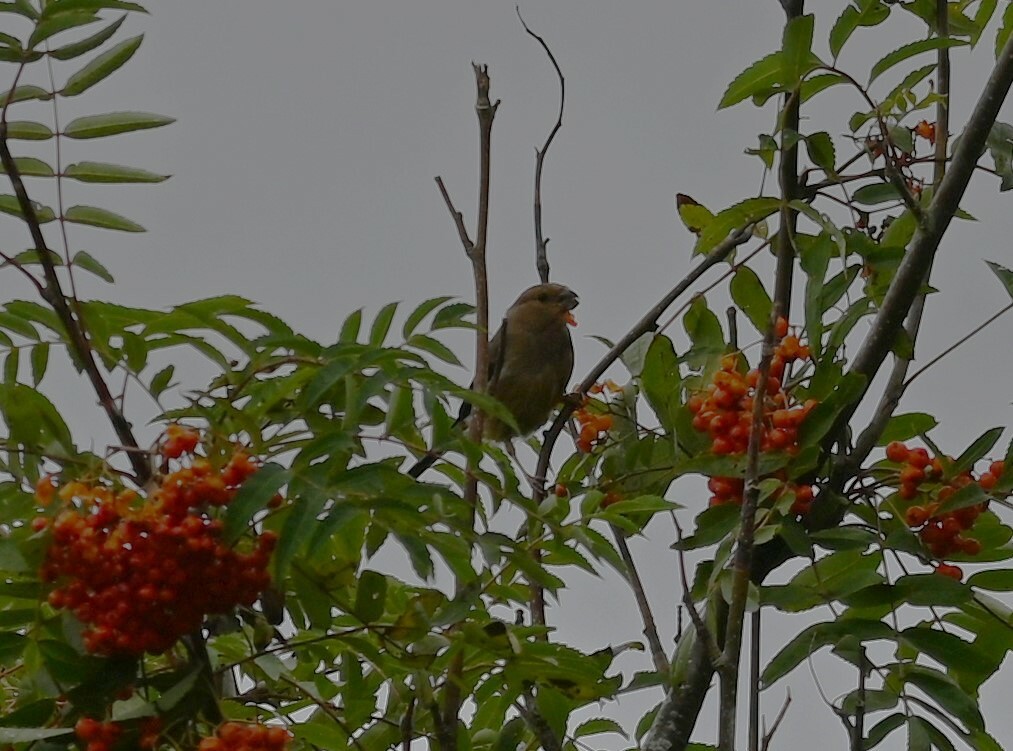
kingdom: Animalia
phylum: Chordata
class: Aves
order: Passeriformes
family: Fringillidae
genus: Pyrrhula
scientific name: Pyrrhula pyrrhula
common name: Eurasian bullfinch
